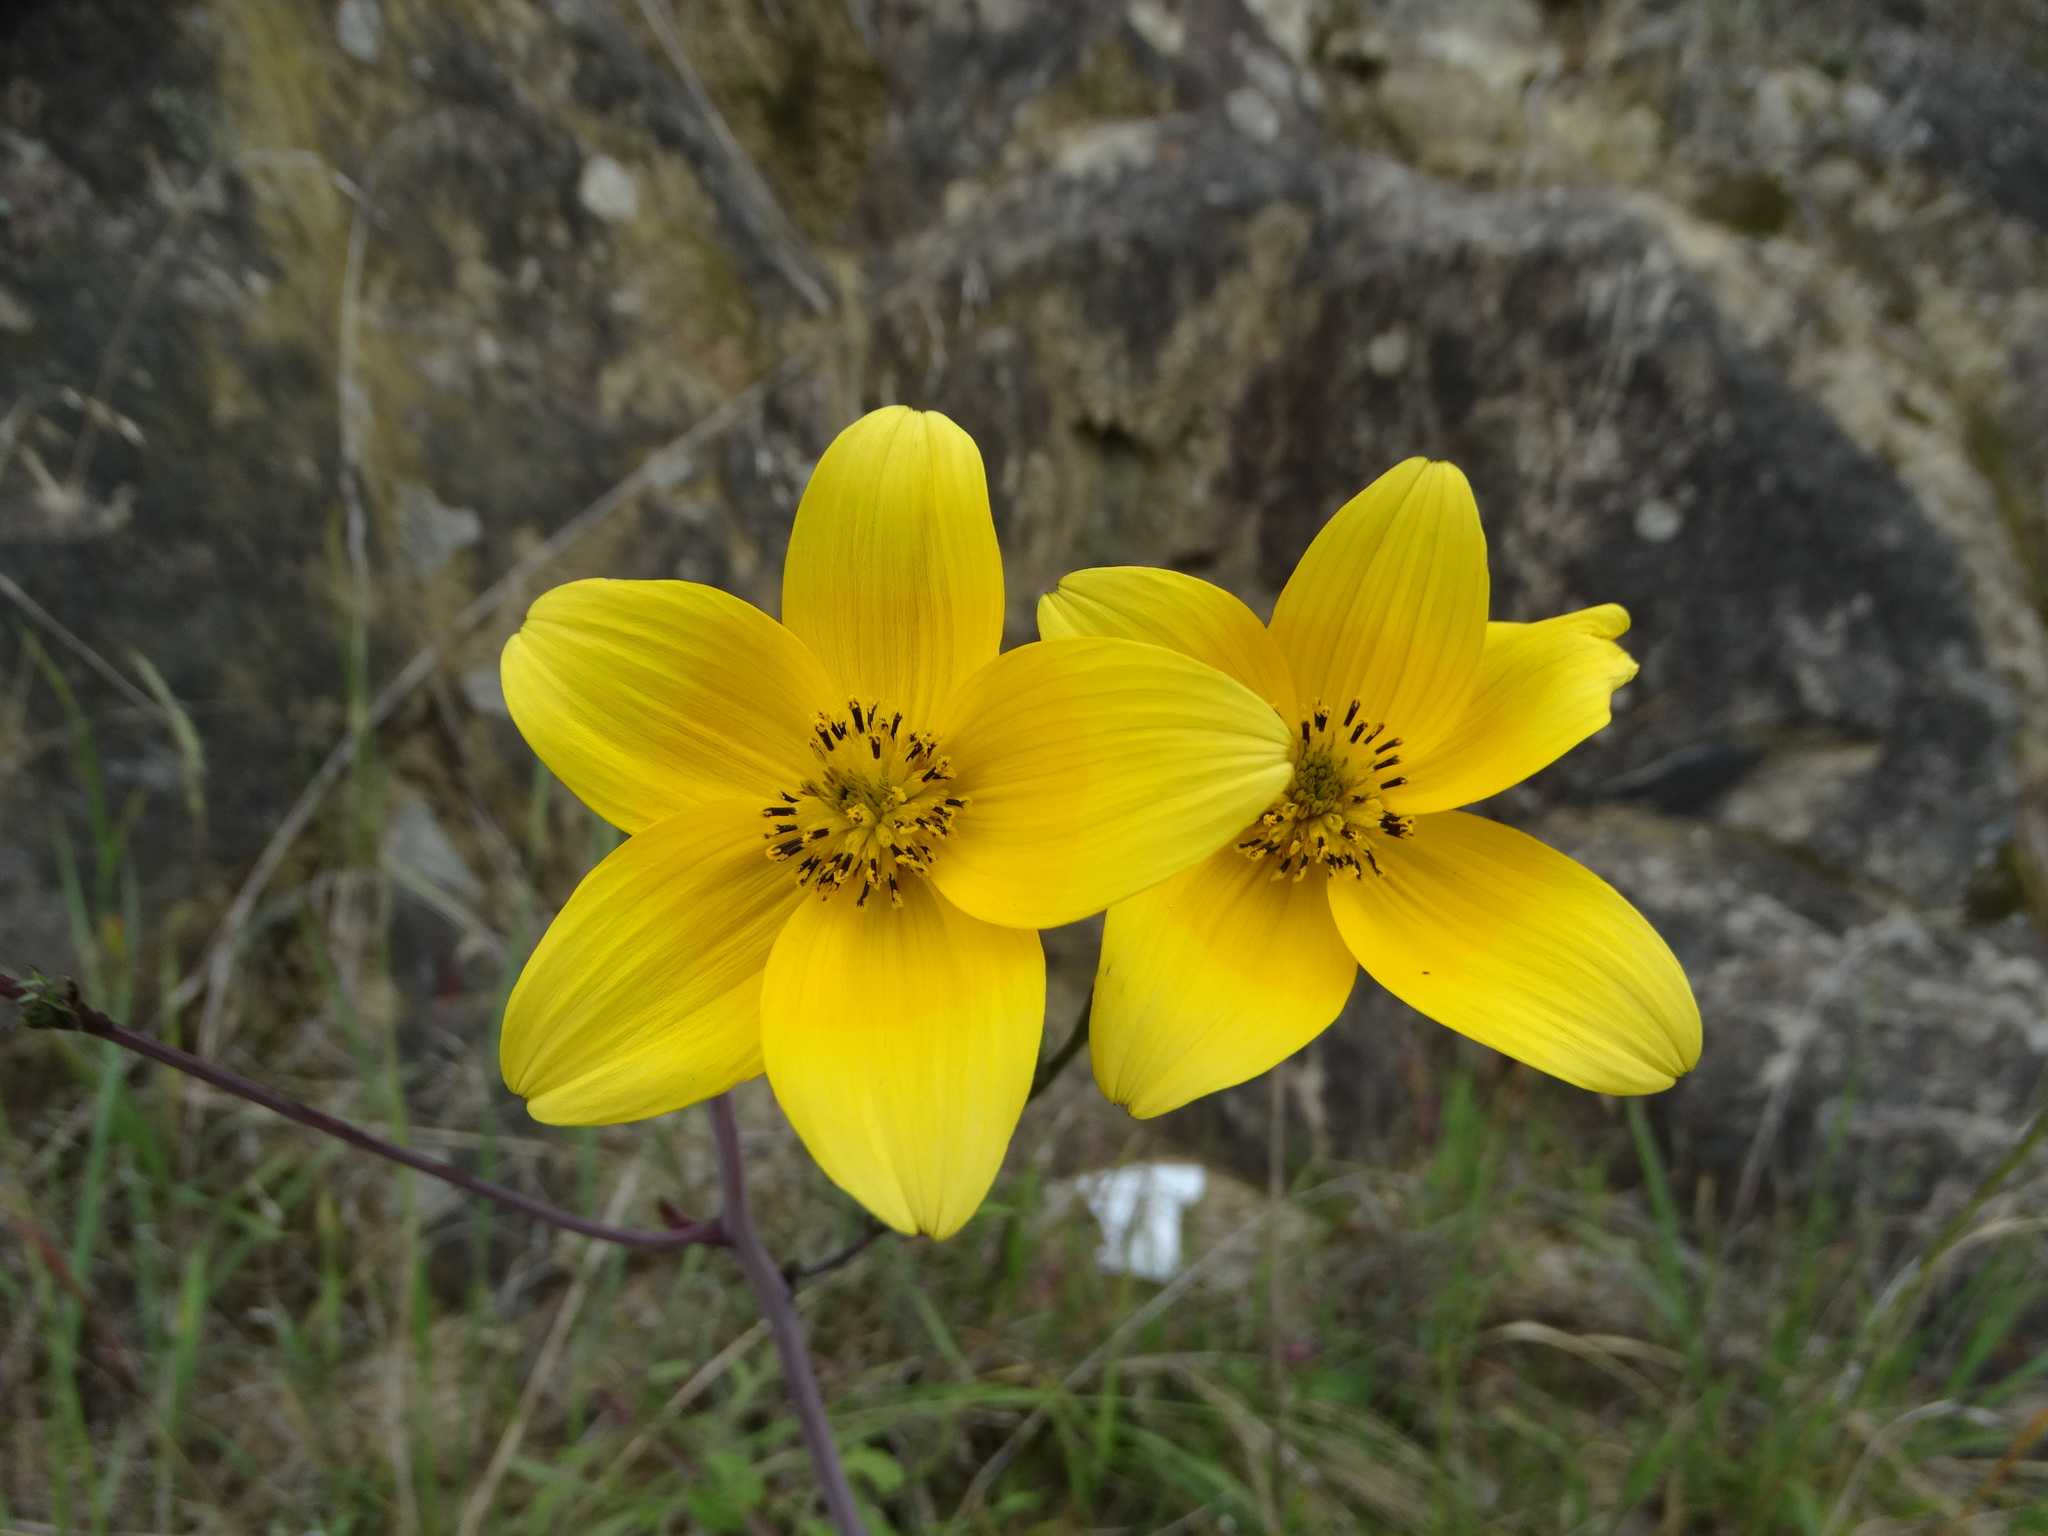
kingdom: Plantae
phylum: Tracheophyta
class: Magnoliopsida
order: Asterales
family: Asteraceae
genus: Bidens
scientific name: Bidens triplinervia
